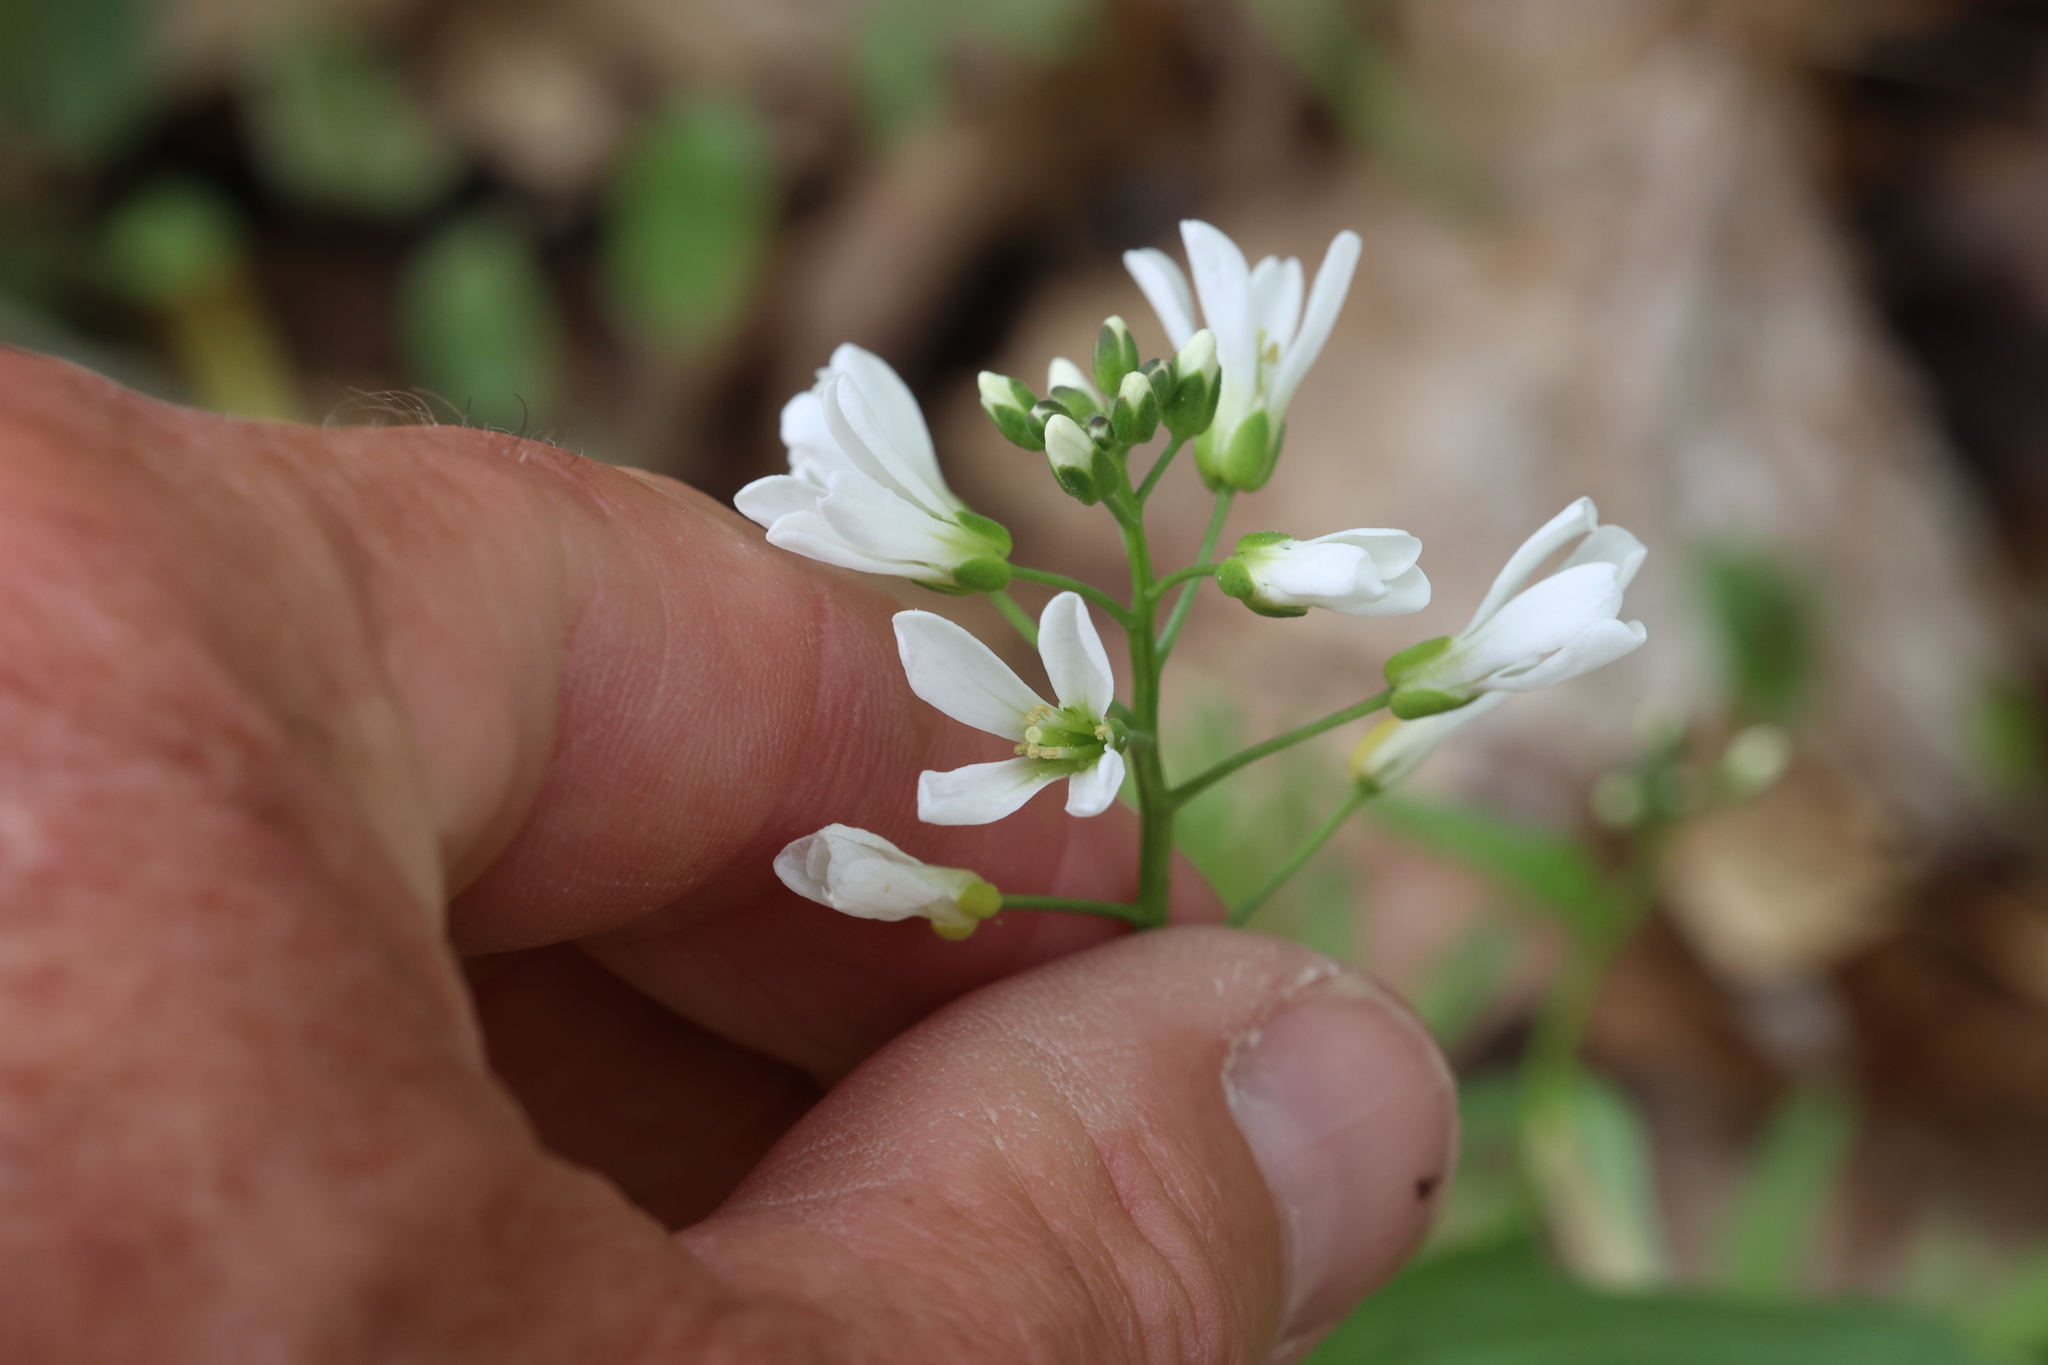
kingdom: Plantae
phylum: Tracheophyta
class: Magnoliopsida
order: Brassicales
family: Brassicaceae
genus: Cardamine
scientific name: Cardamine bulbosa
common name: Spring cress
